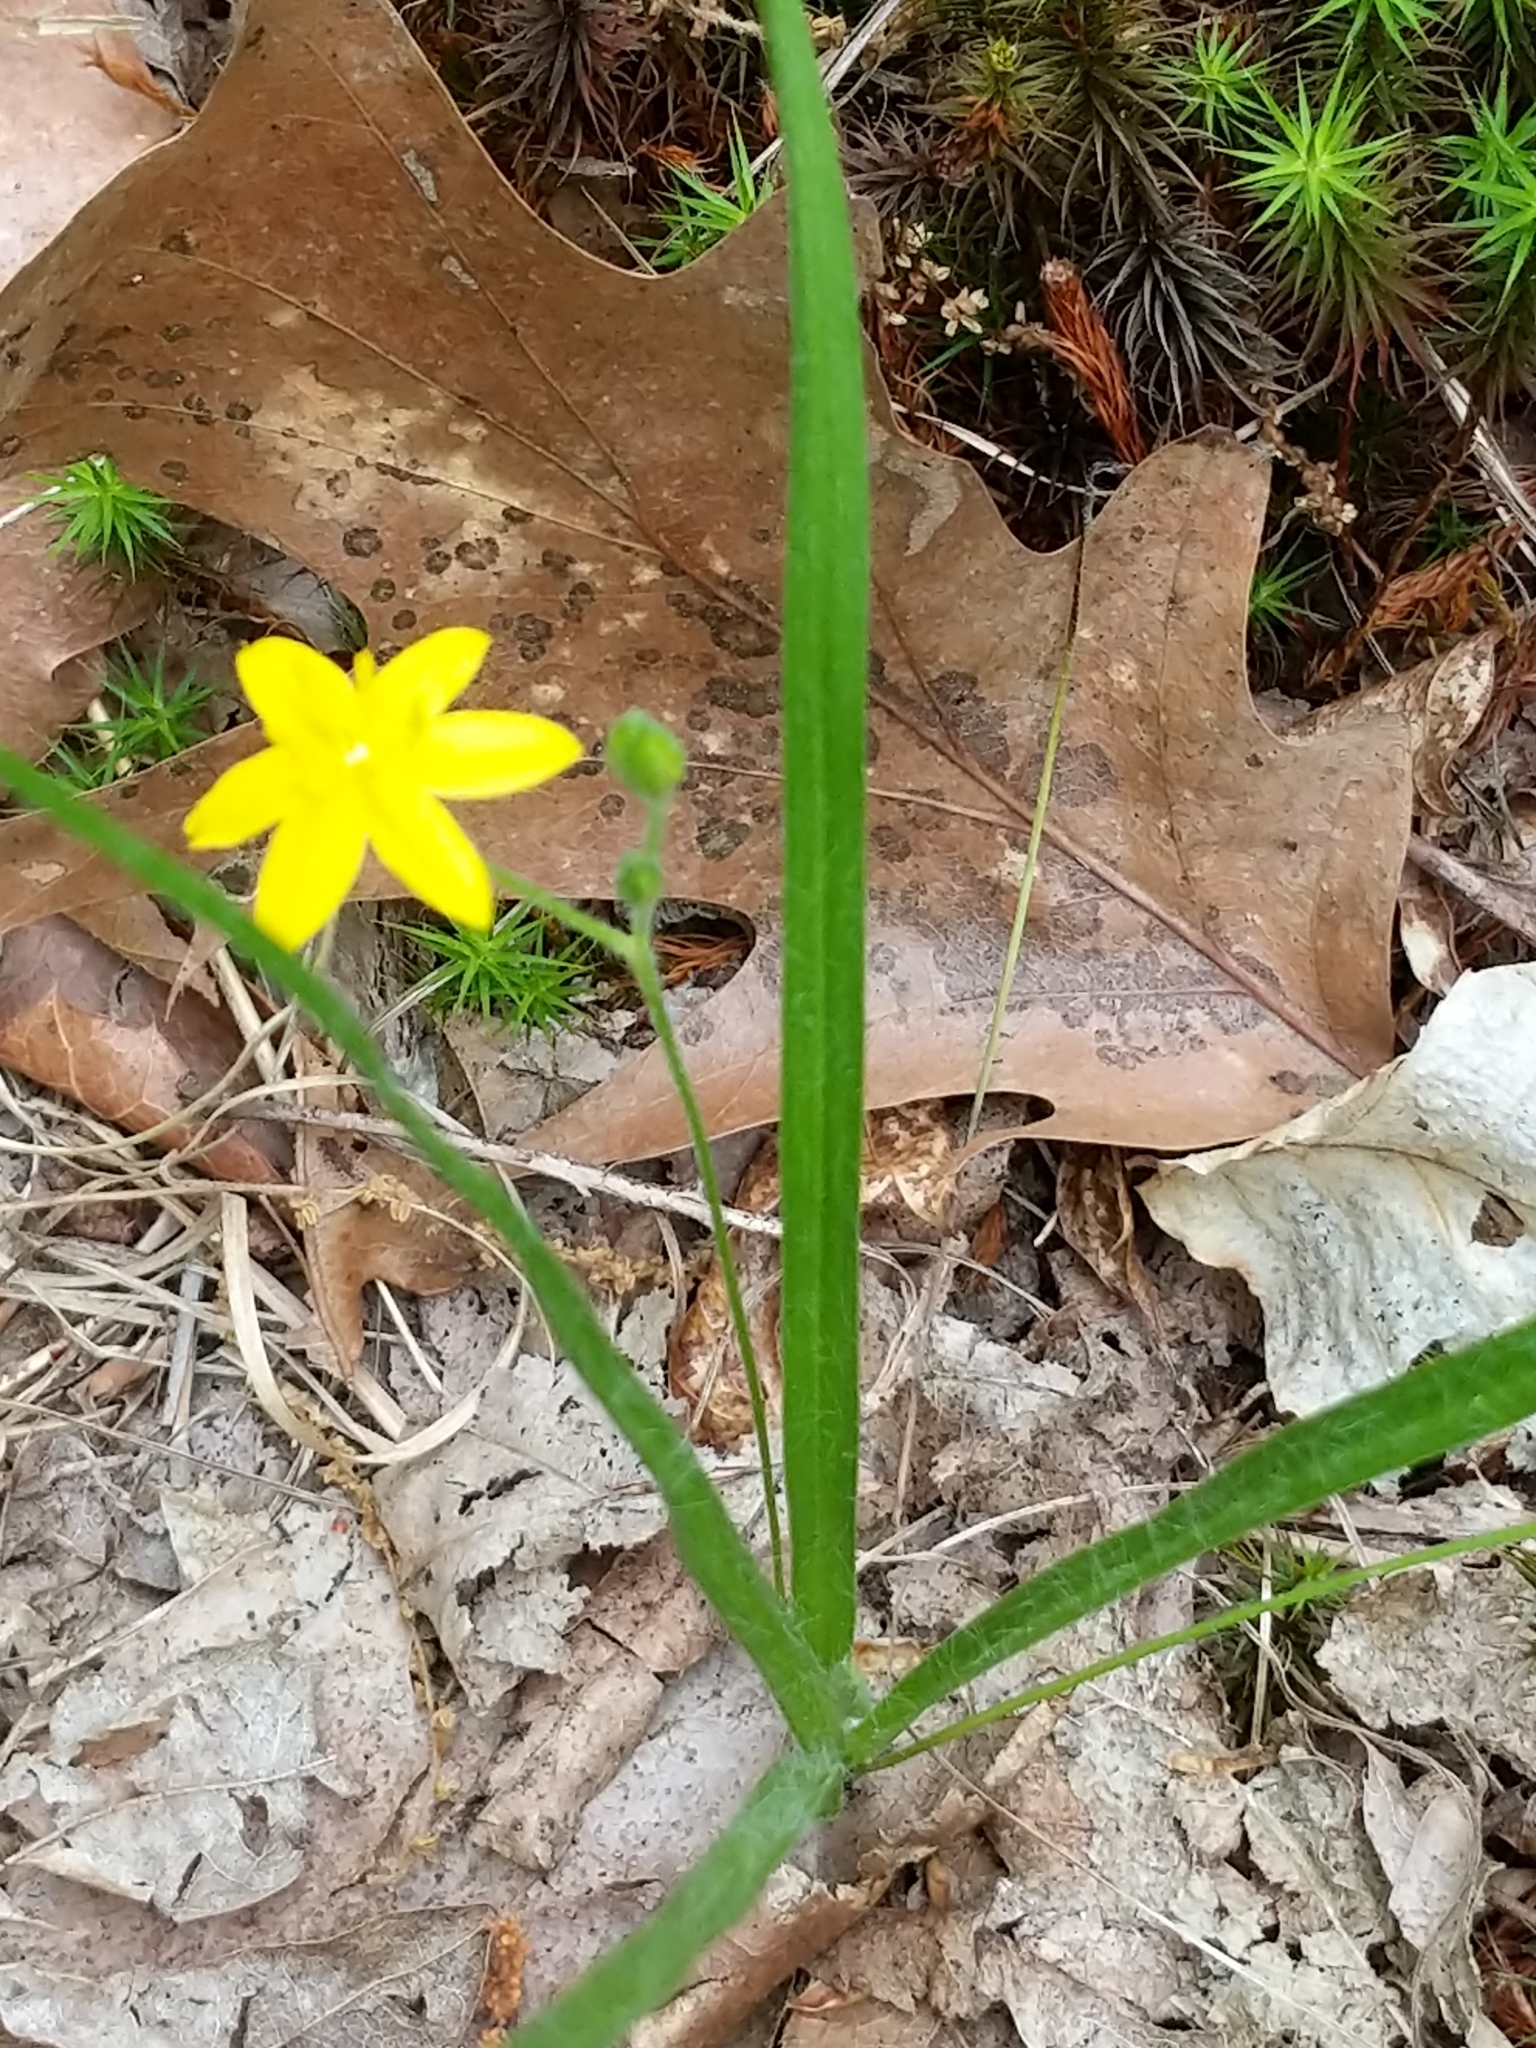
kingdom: Plantae
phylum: Tracheophyta
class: Liliopsida
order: Asparagales
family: Hypoxidaceae
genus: Hypoxis
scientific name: Hypoxis hirsuta
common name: Common goldstar
